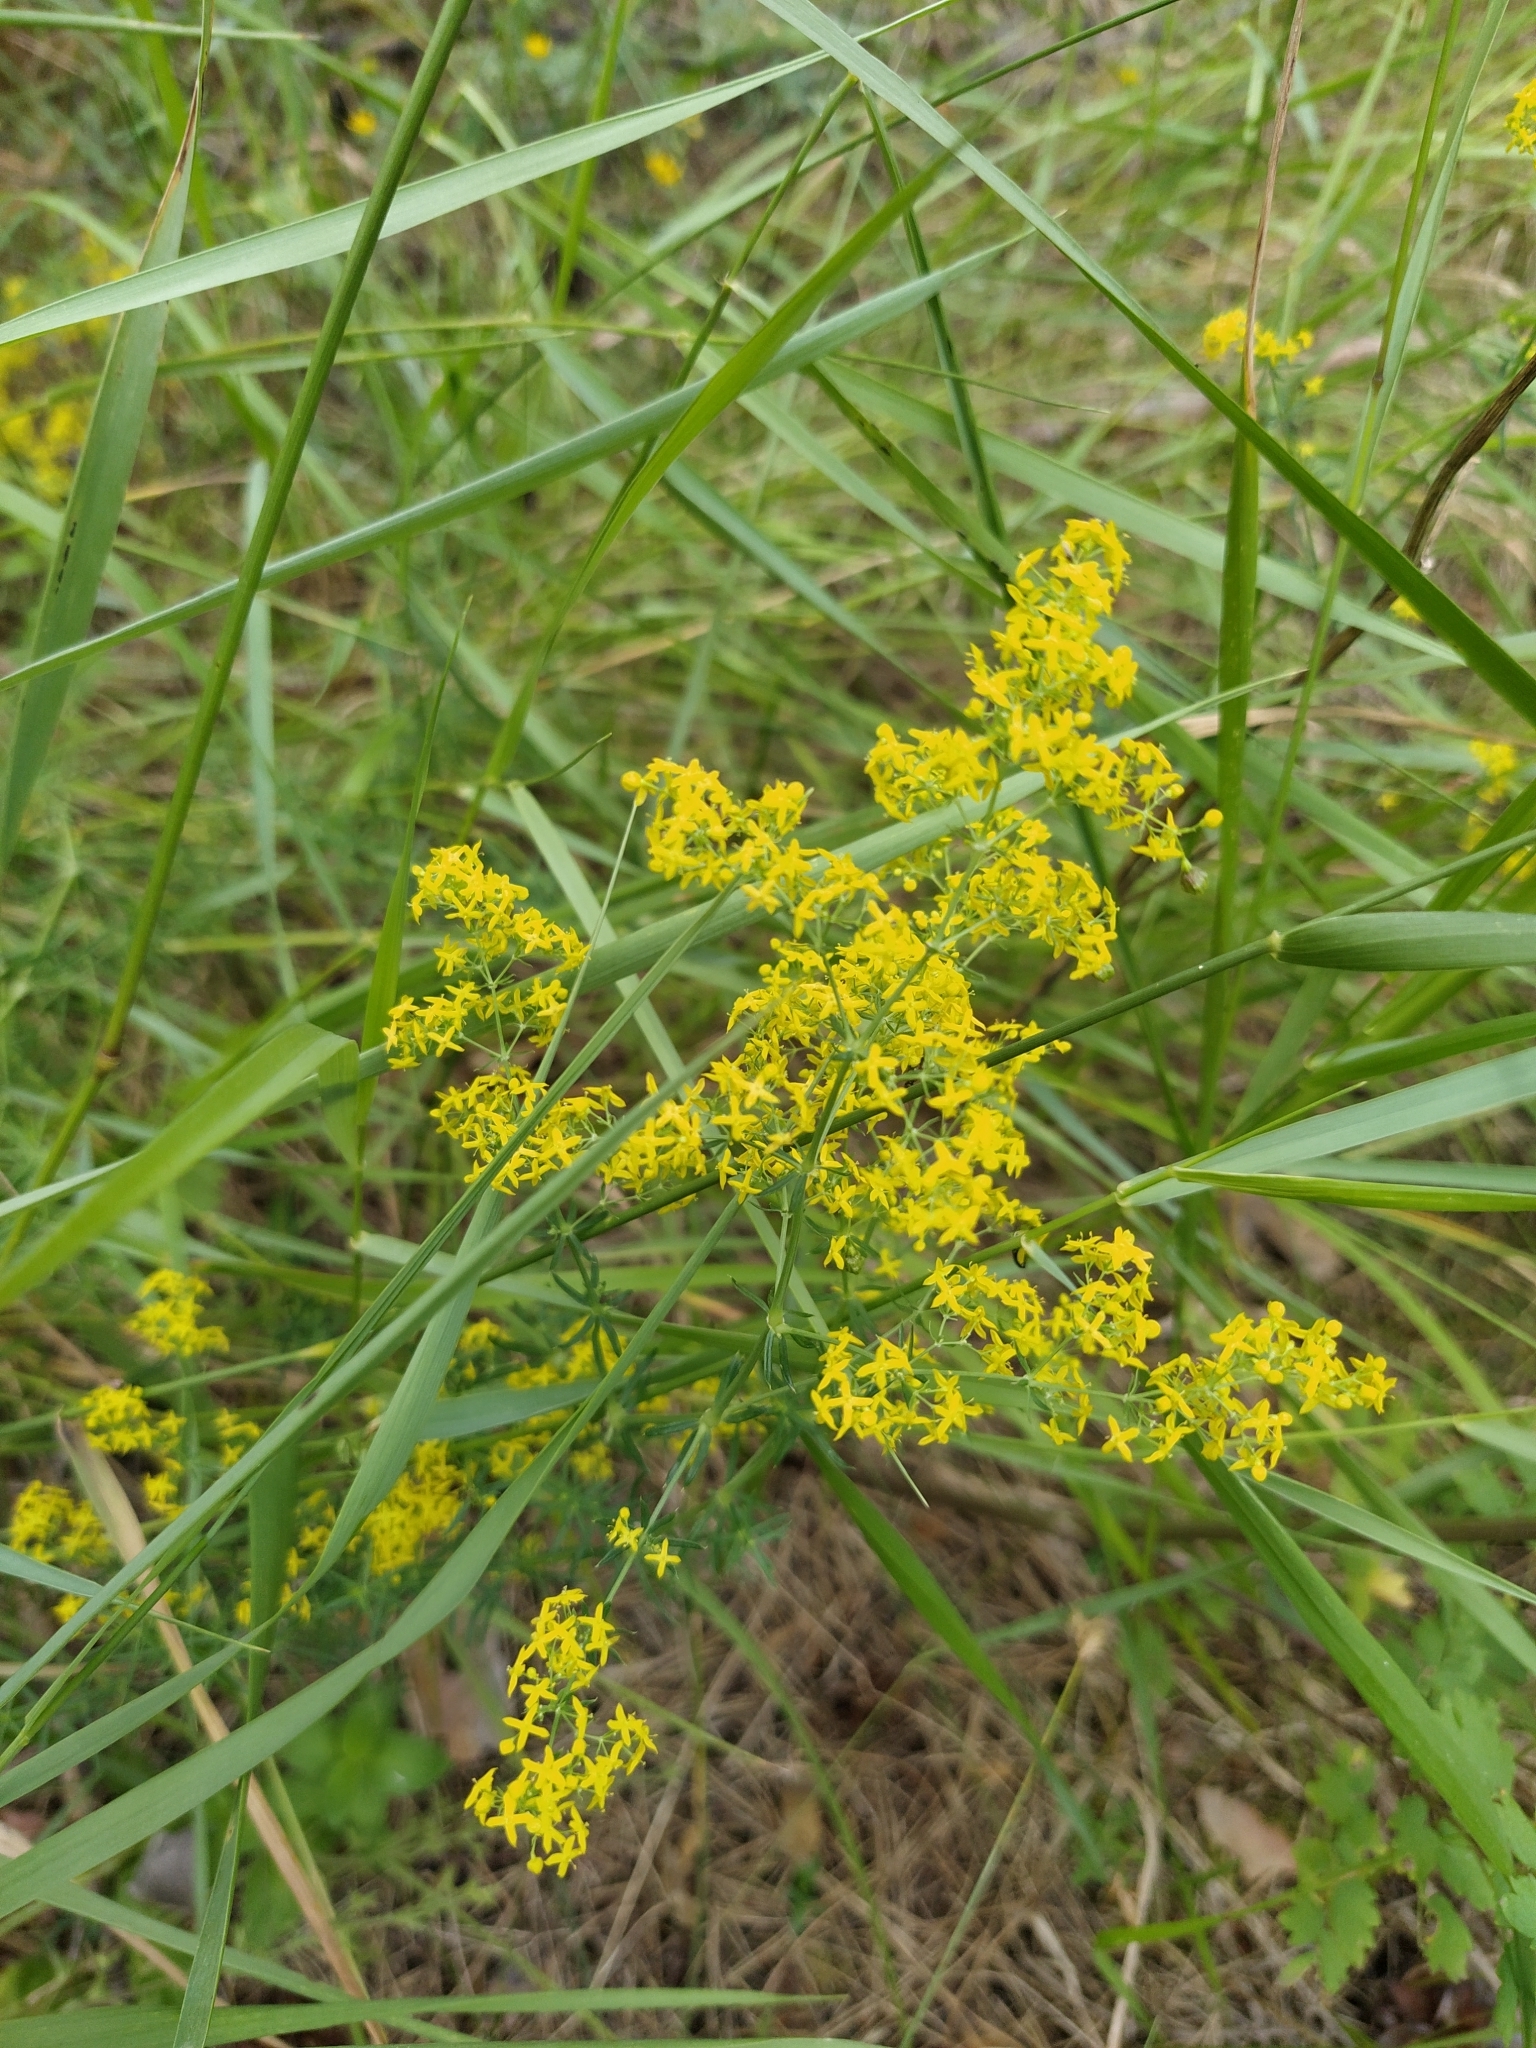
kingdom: Plantae
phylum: Tracheophyta
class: Magnoliopsida
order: Gentianales
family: Rubiaceae
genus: Galium
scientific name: Galium verum
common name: Lady's bedstraw
